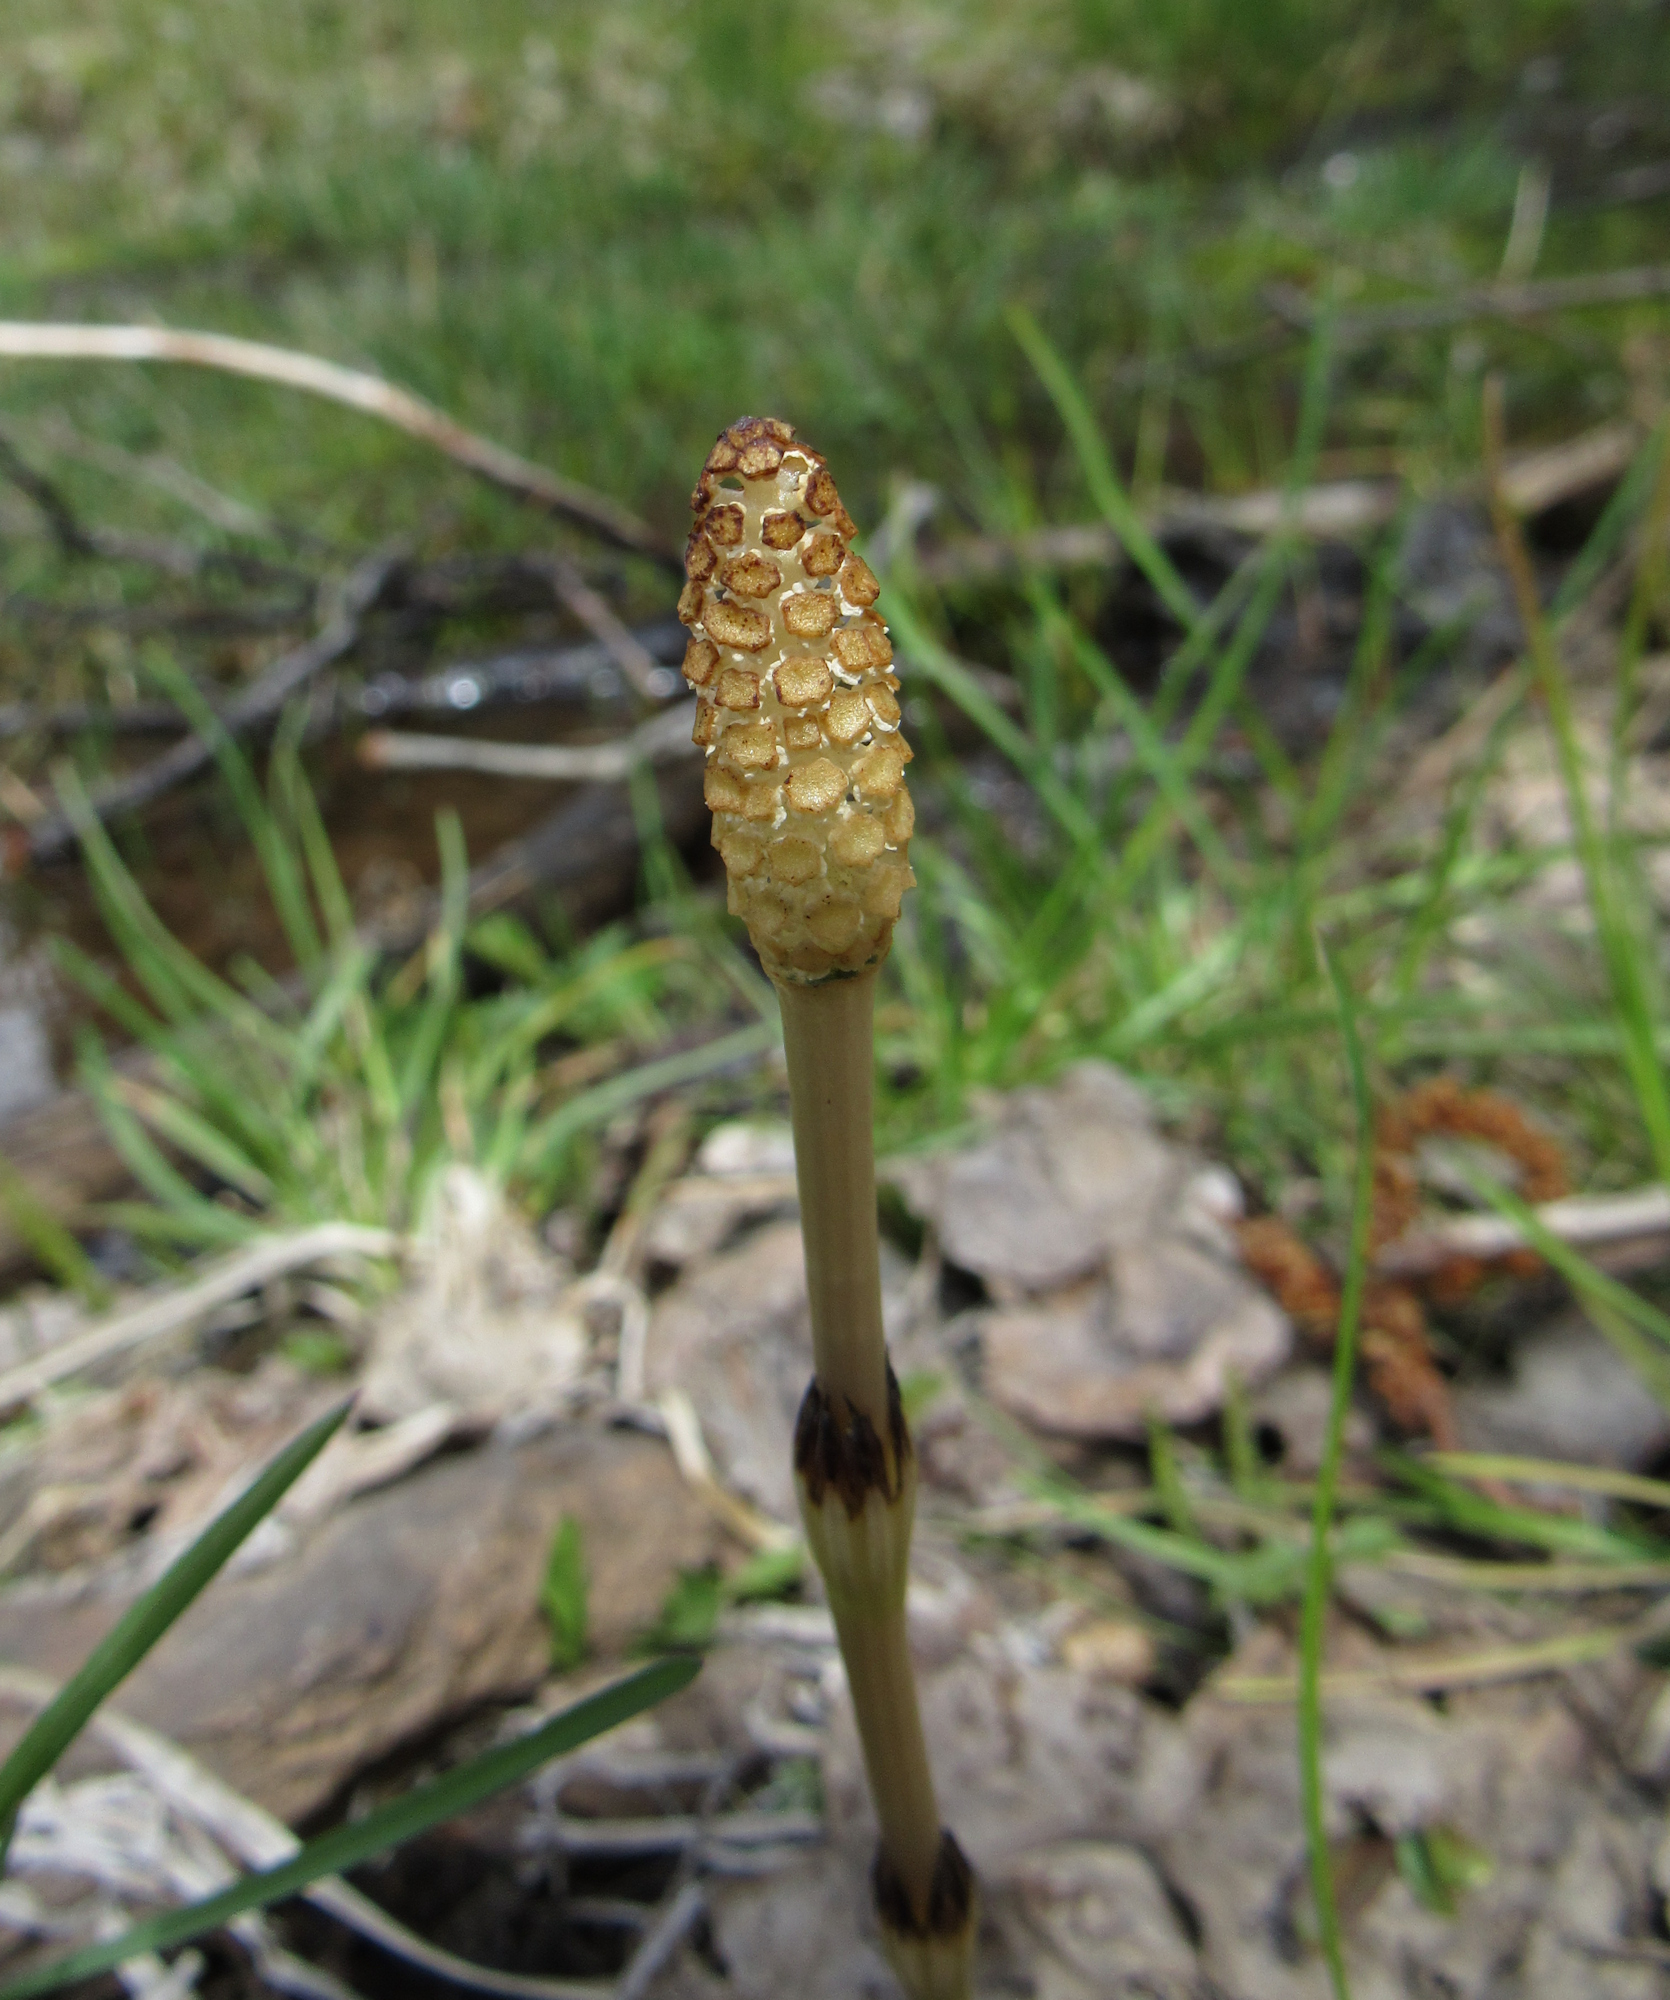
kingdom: Plantae
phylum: Tracheophyta
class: Polypodiopsida
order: Equisetales
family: Equisetaceae
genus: Equisetum
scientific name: Equisetum arvense
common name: Field horsetail
